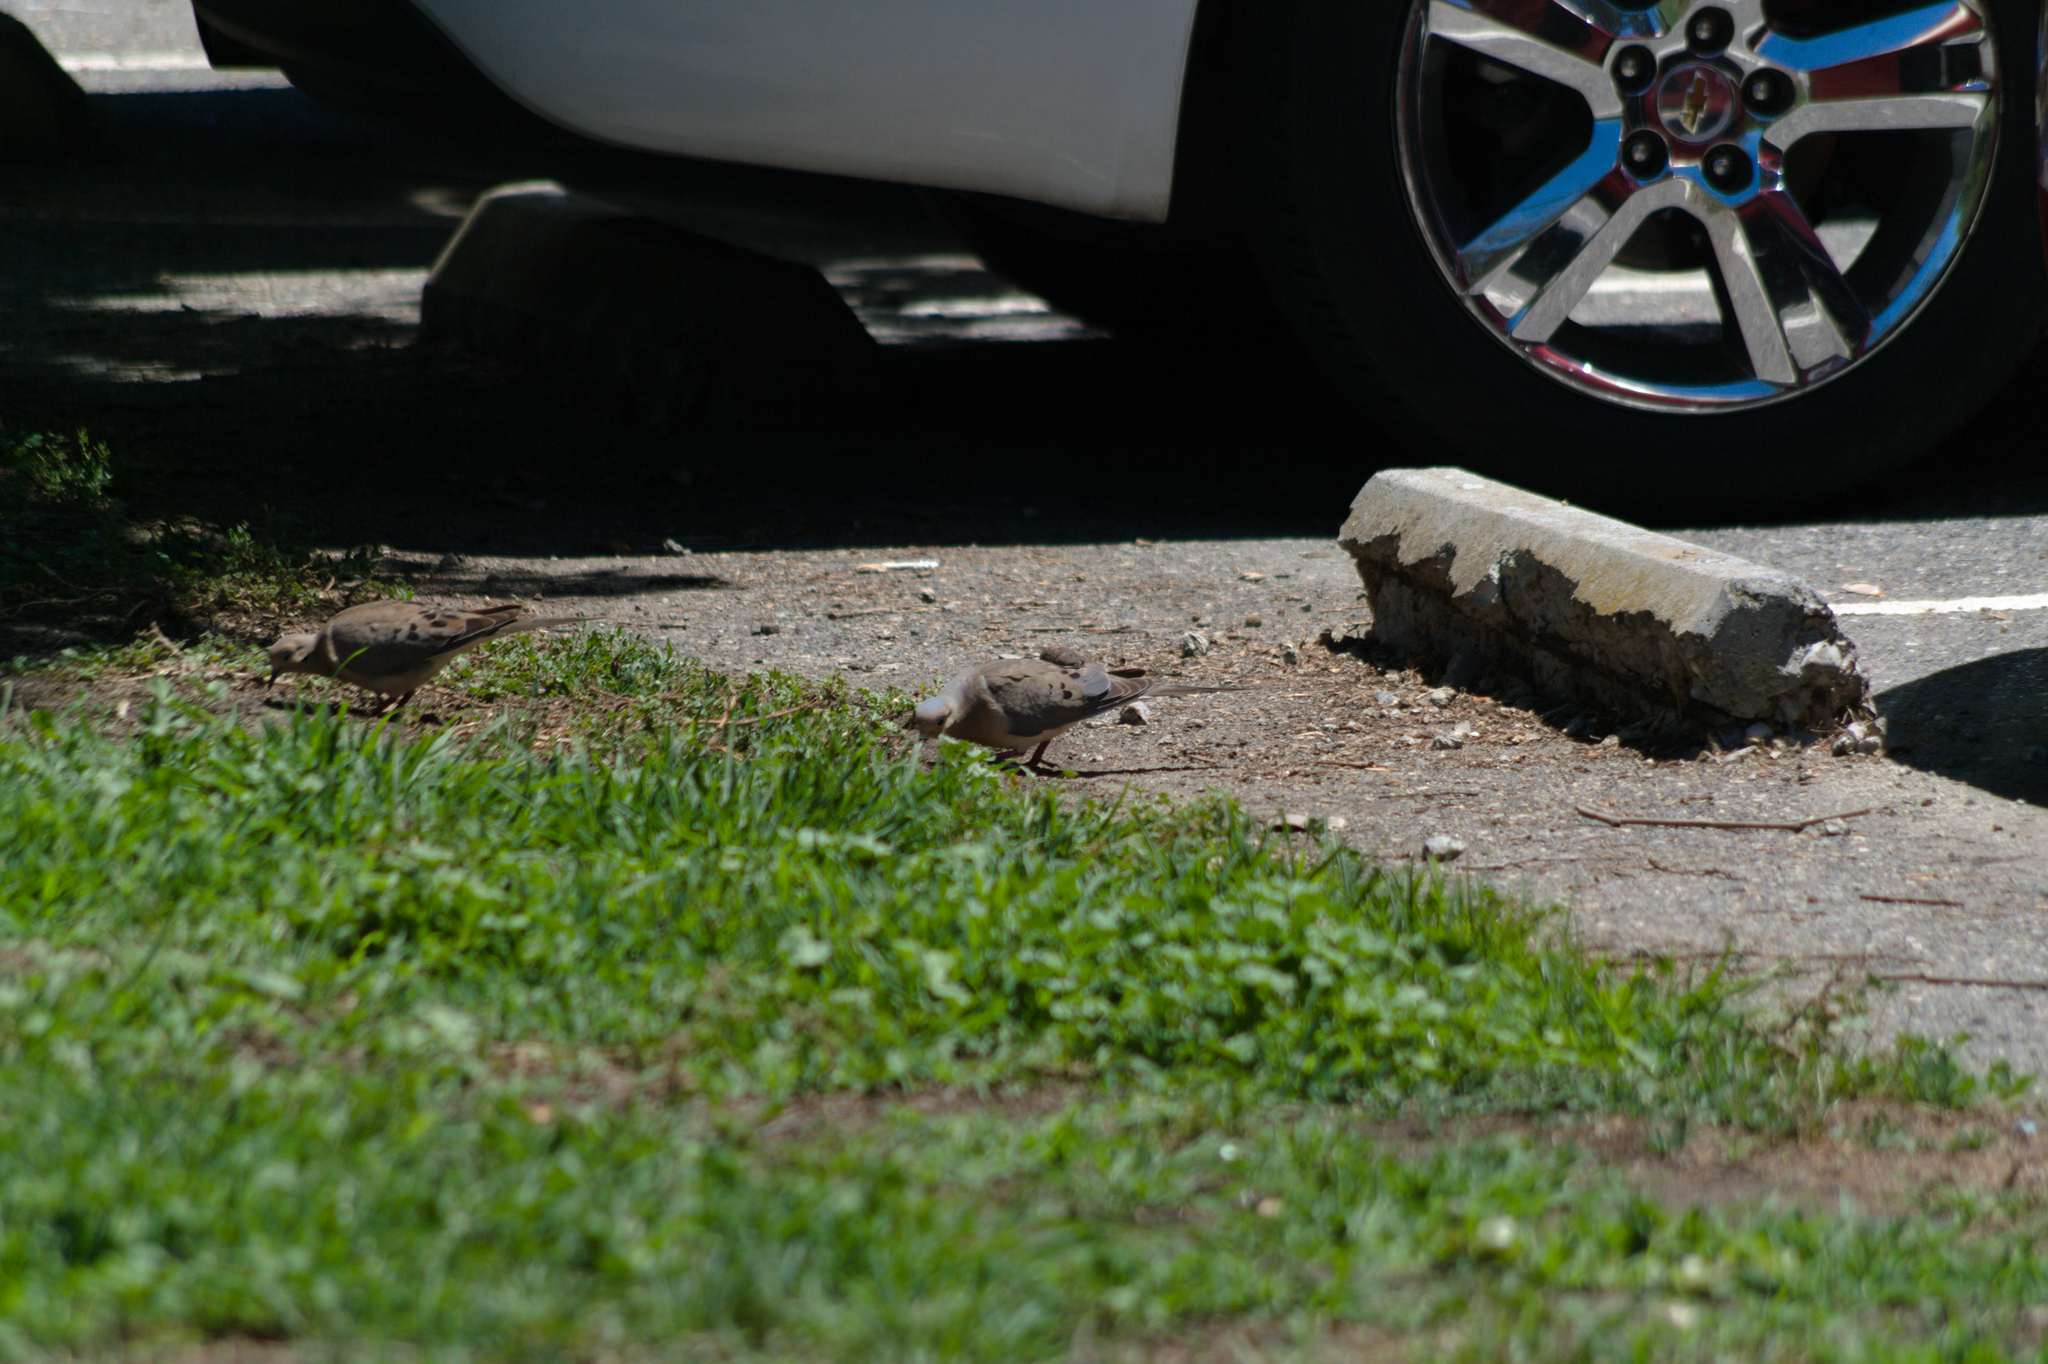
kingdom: Animalia
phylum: Chordata
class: Aves
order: Columbiformes
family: Columbidae
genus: Zenaida
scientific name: Zenaida macroura
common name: Mourning dove
